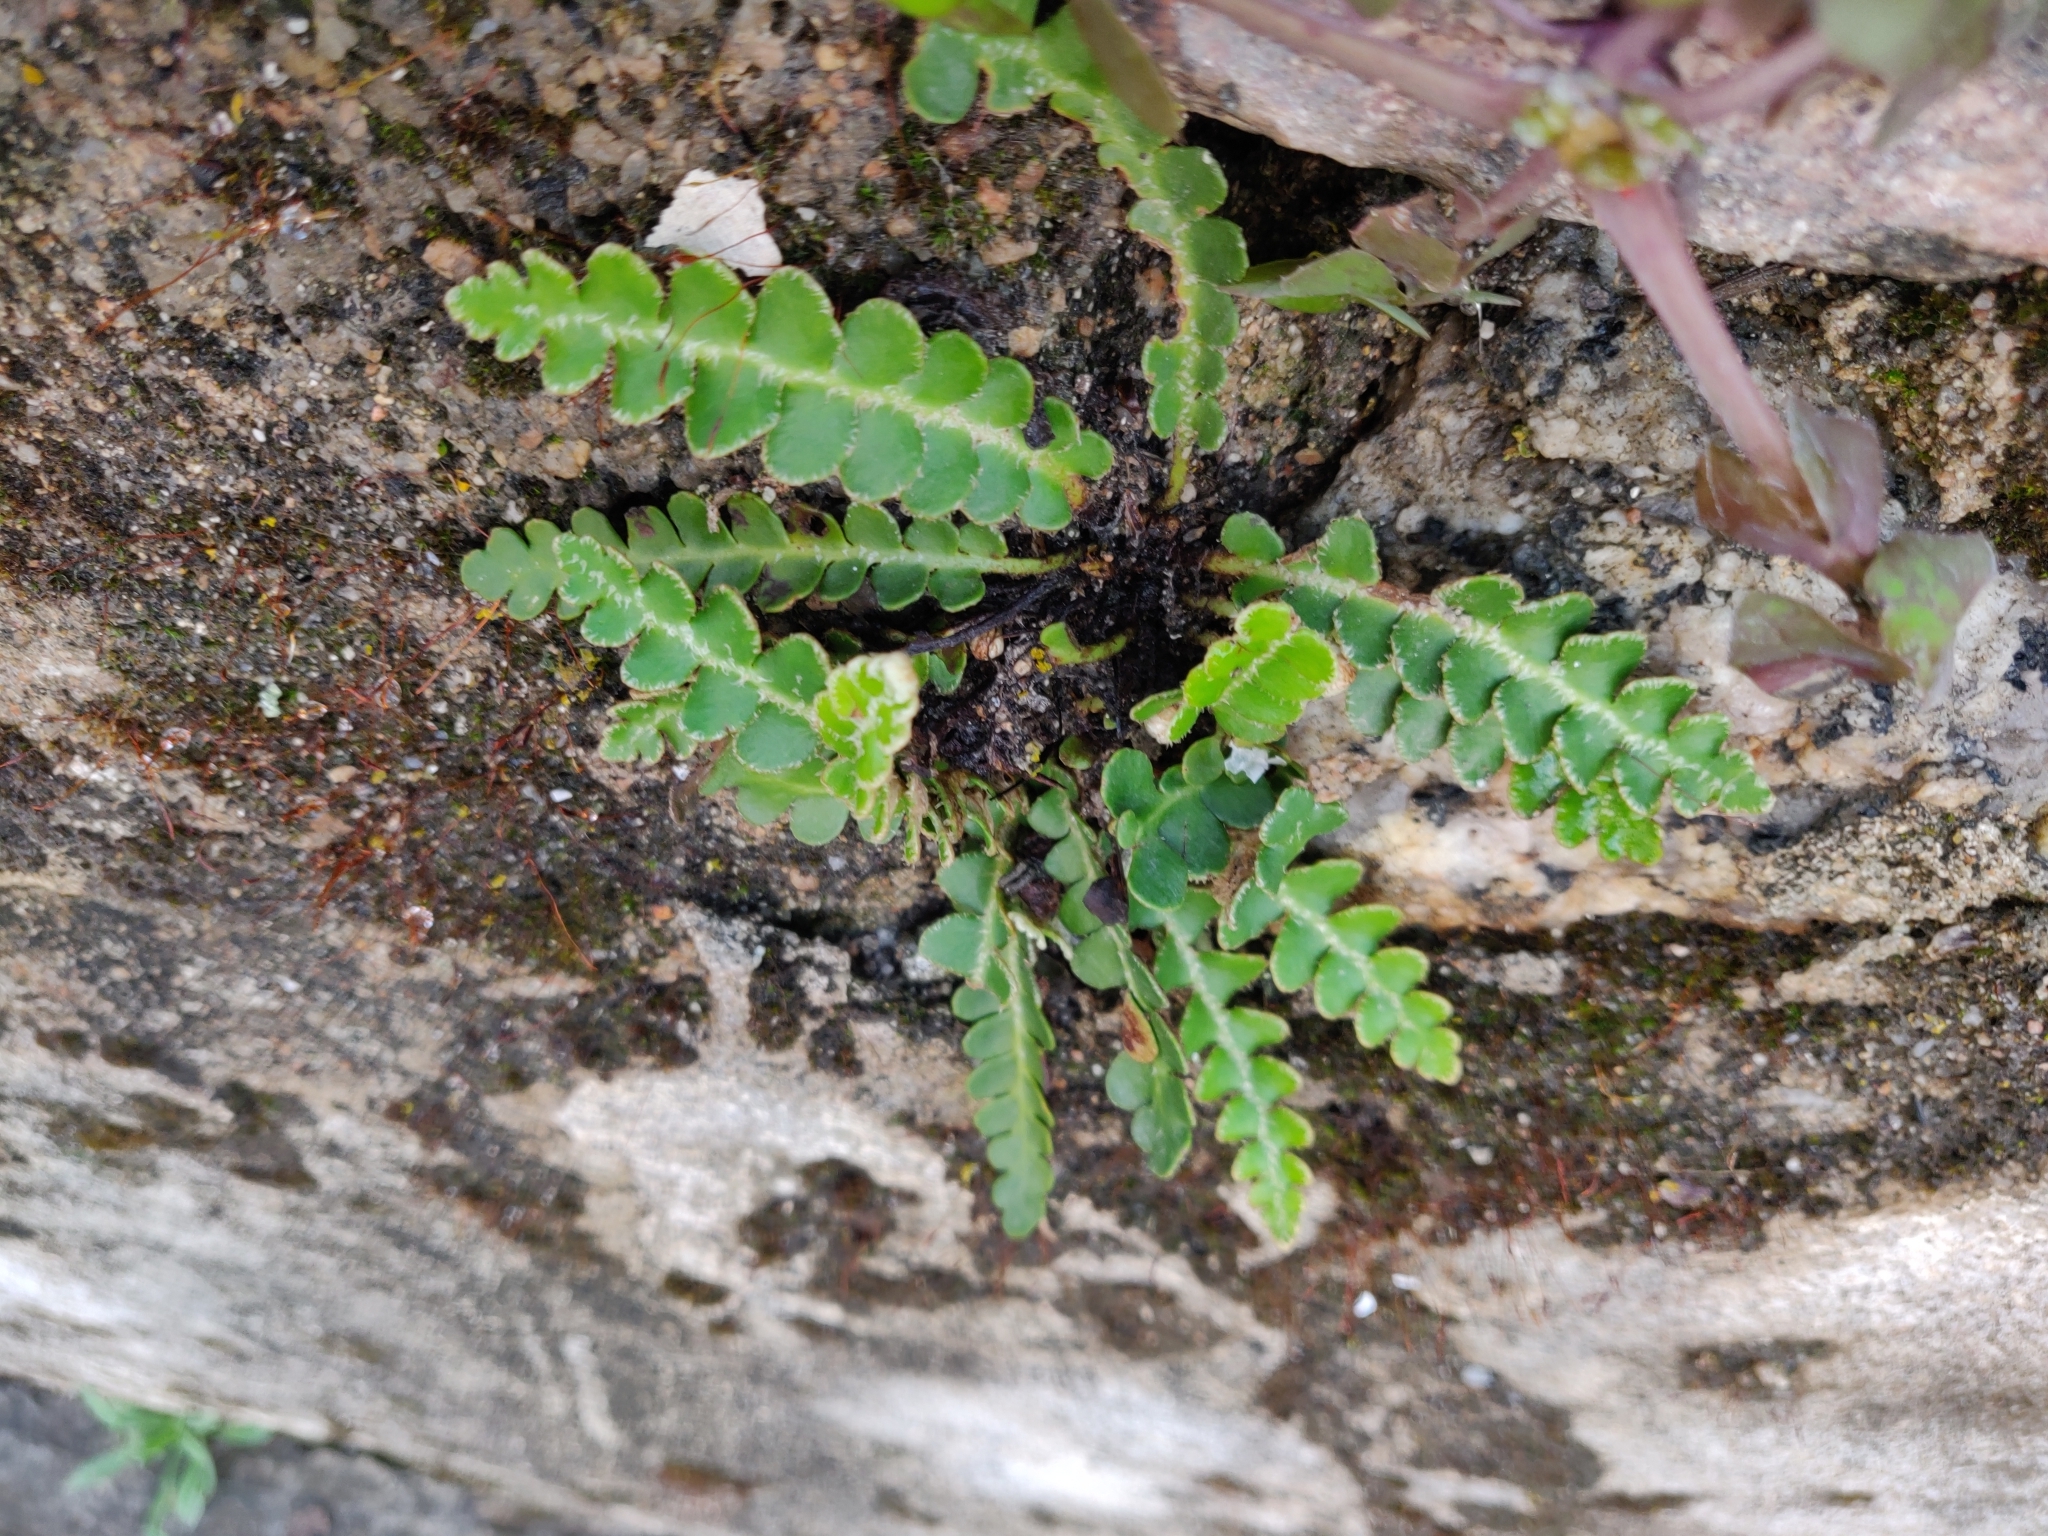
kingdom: Plantae
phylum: Tracheophyta
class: Polypodiopsida
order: Polypodiales
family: Aspleniaceae
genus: Asplenium
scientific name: Asplenium ceterach
